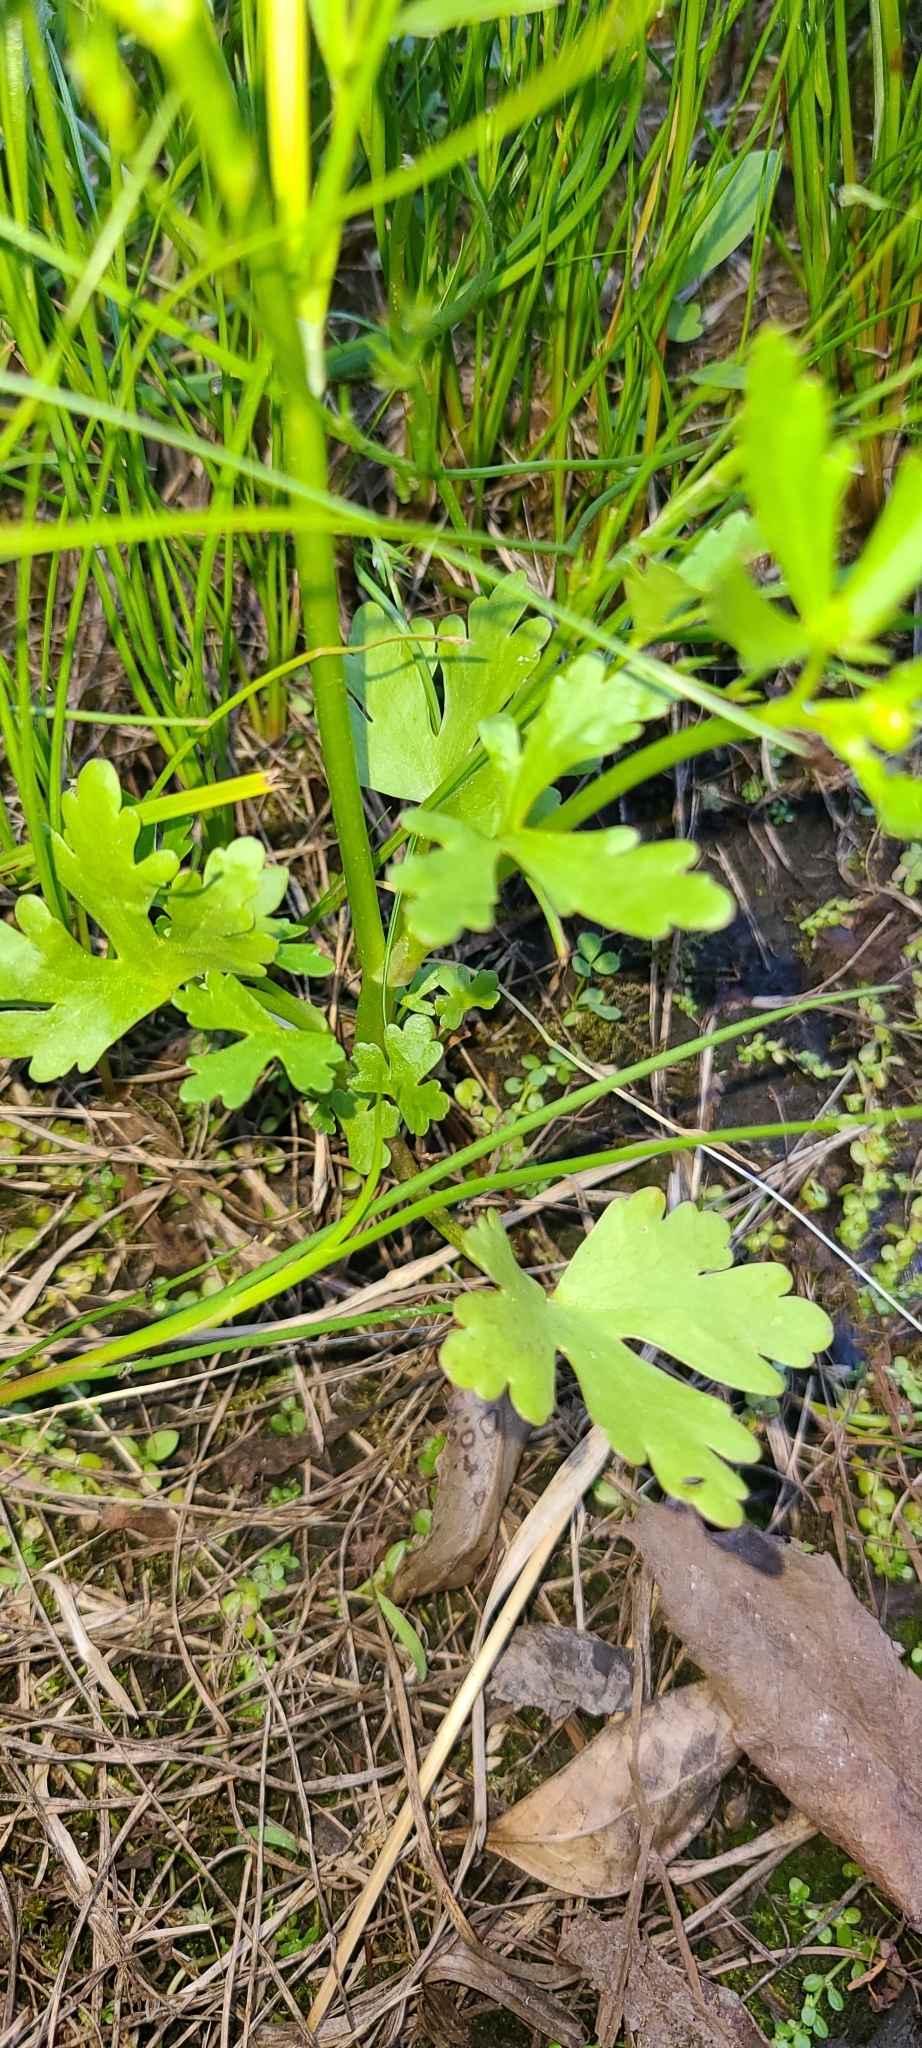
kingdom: Plantae
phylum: Tracheophyta
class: Magnoliopsida
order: Ranunculales
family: Ranunculaceae
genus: Ranunculus
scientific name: Ranunculus sceleratus
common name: Celery-leaved buttercup
